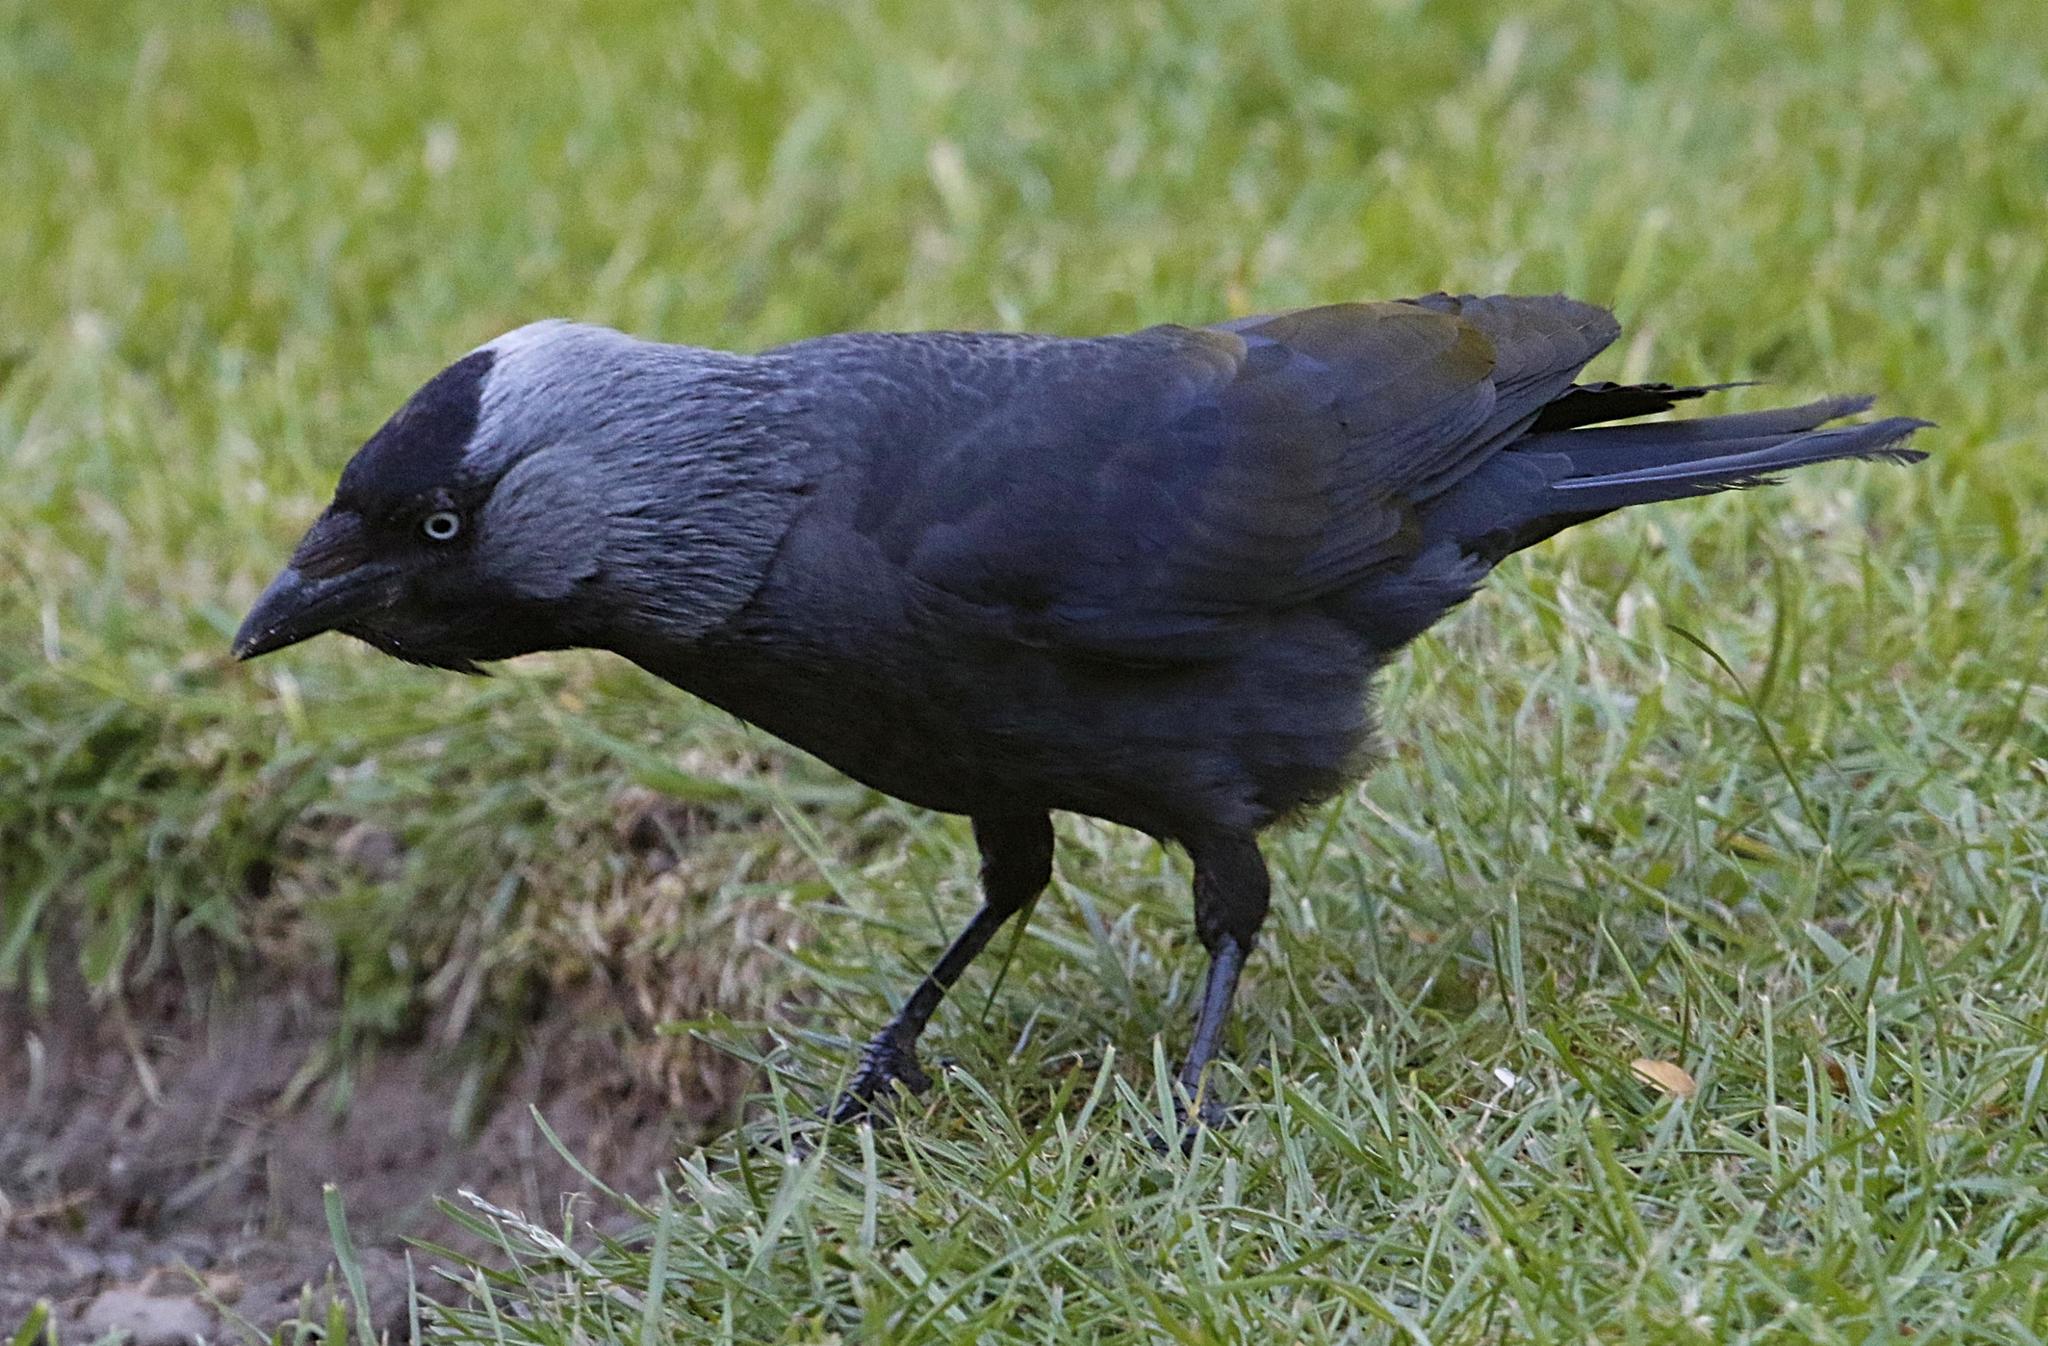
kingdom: Animalia
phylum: Chordata
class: Aves
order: Passeriformes
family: Corvidae
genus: Coloeus
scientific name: Coloeus monedula
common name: Western jackdaw
